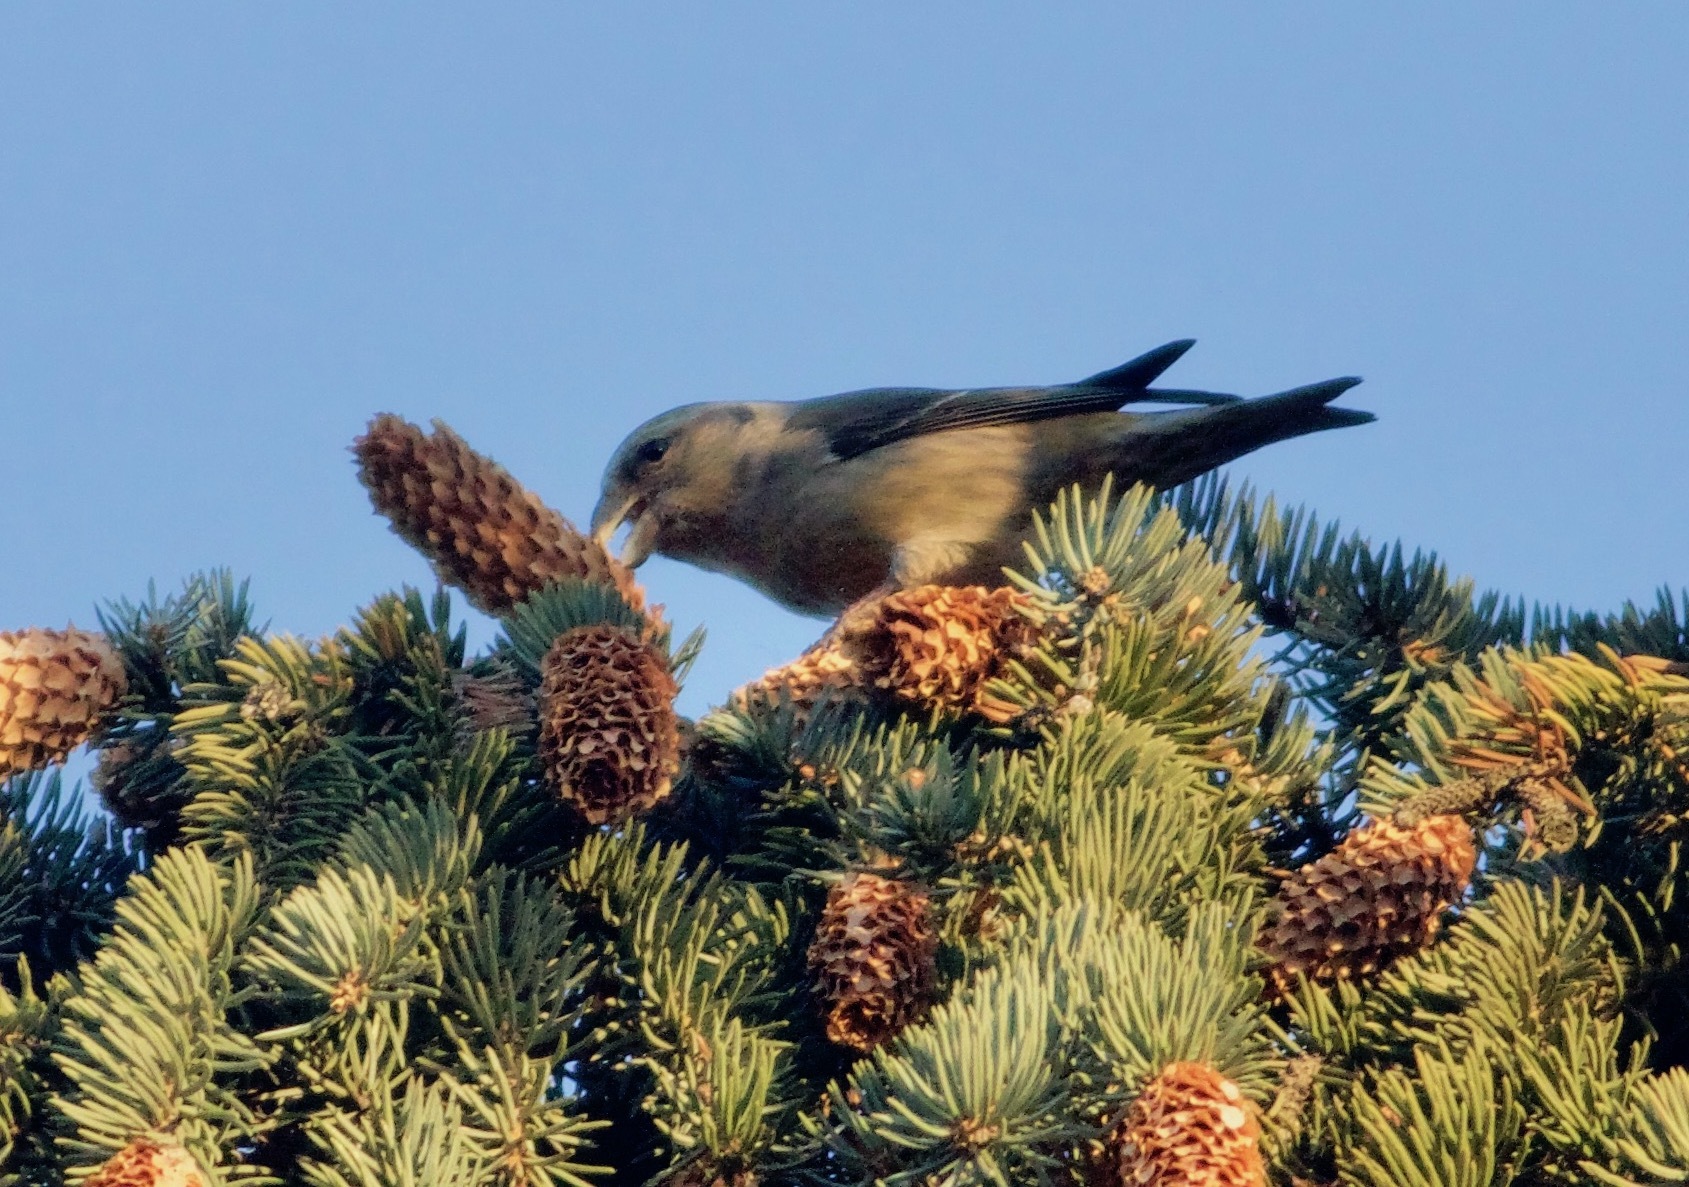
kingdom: Animalia
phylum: Chordata
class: Aves
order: Passeriformes
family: Fringillidae
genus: Loxia
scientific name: Loxia curvirostra
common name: Red crossbill
